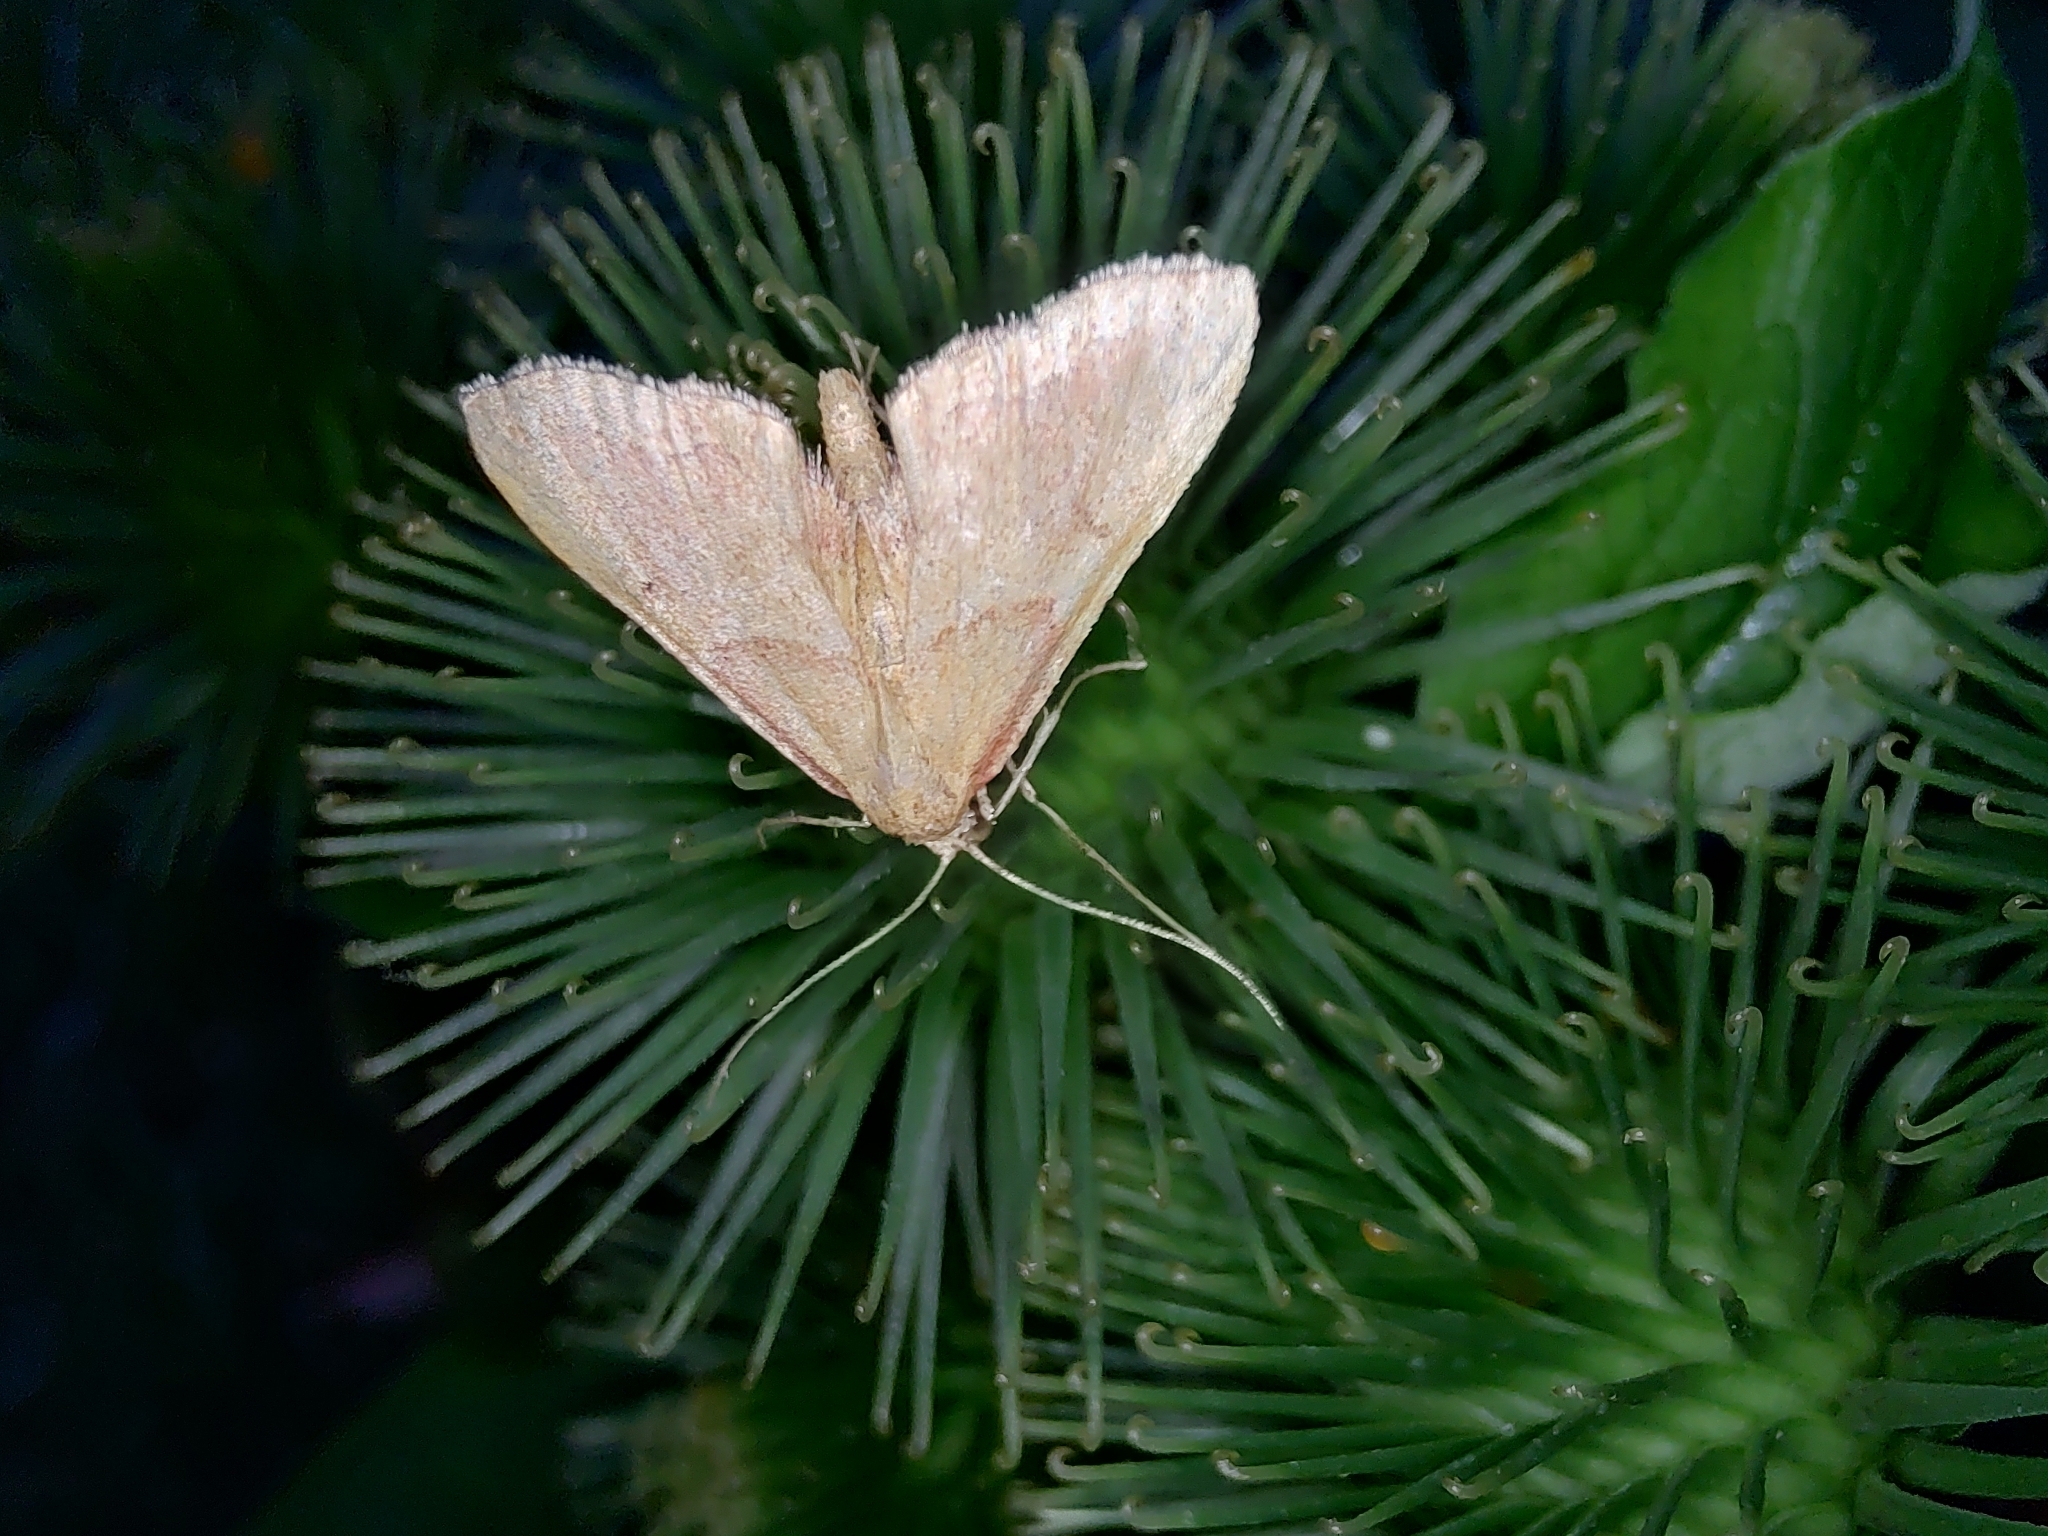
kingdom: Animalia
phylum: Arthropoda
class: Insecta
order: Lepidoptera
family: Pyralidae
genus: Endotricha
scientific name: Endotricha flammealis
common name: Rosy tabby
